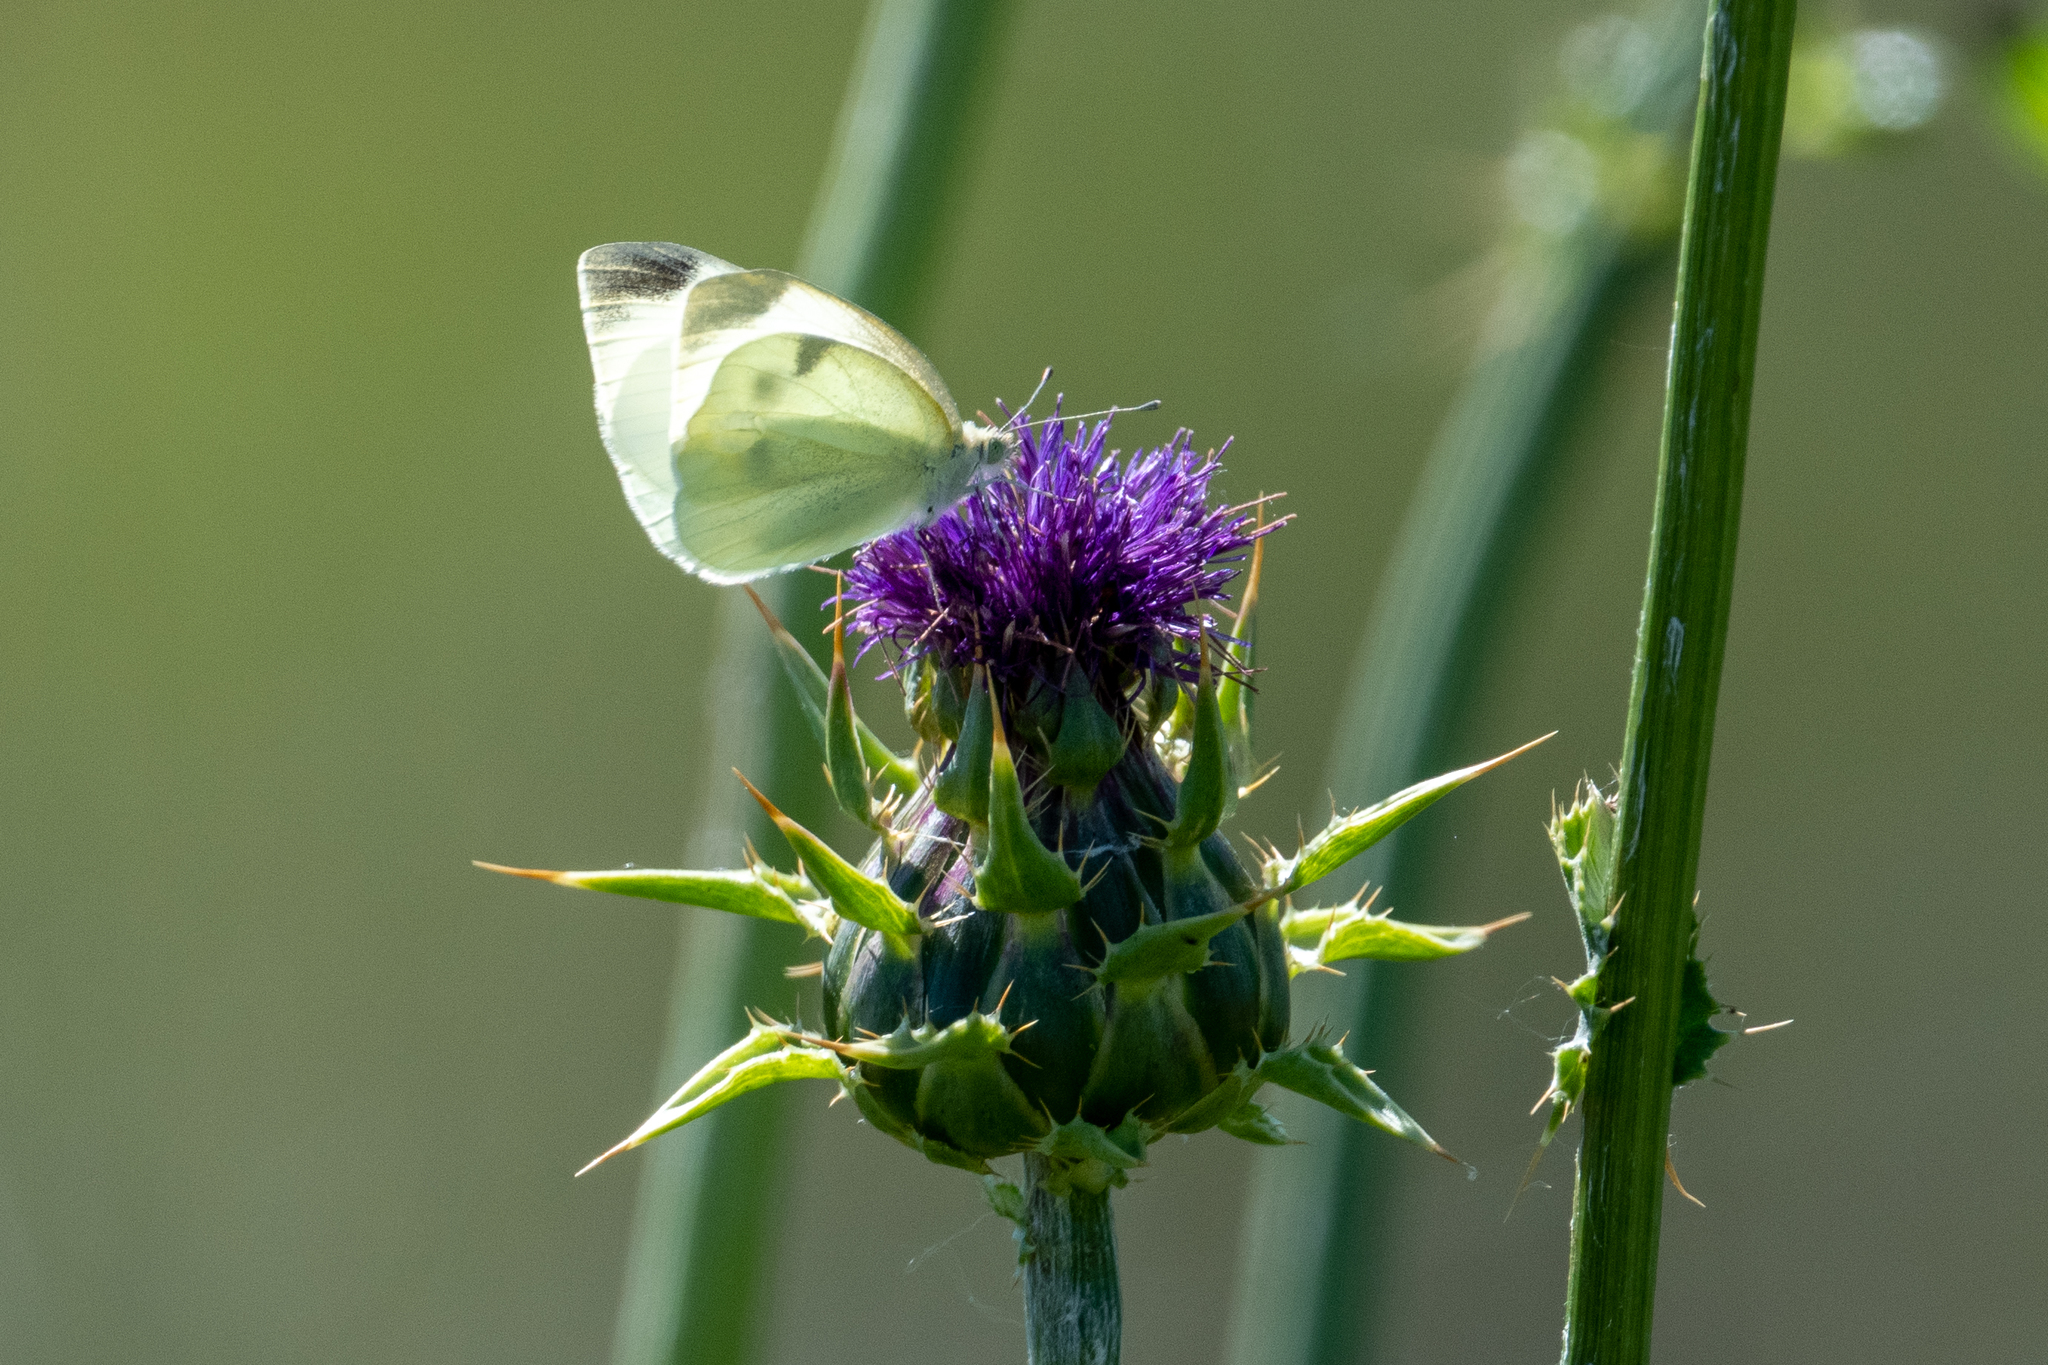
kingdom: Animalia
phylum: Arthropoda
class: Insecta
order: Lepidoptera
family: Pieridae
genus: Pieris
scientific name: Pieris rapae
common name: Small white
